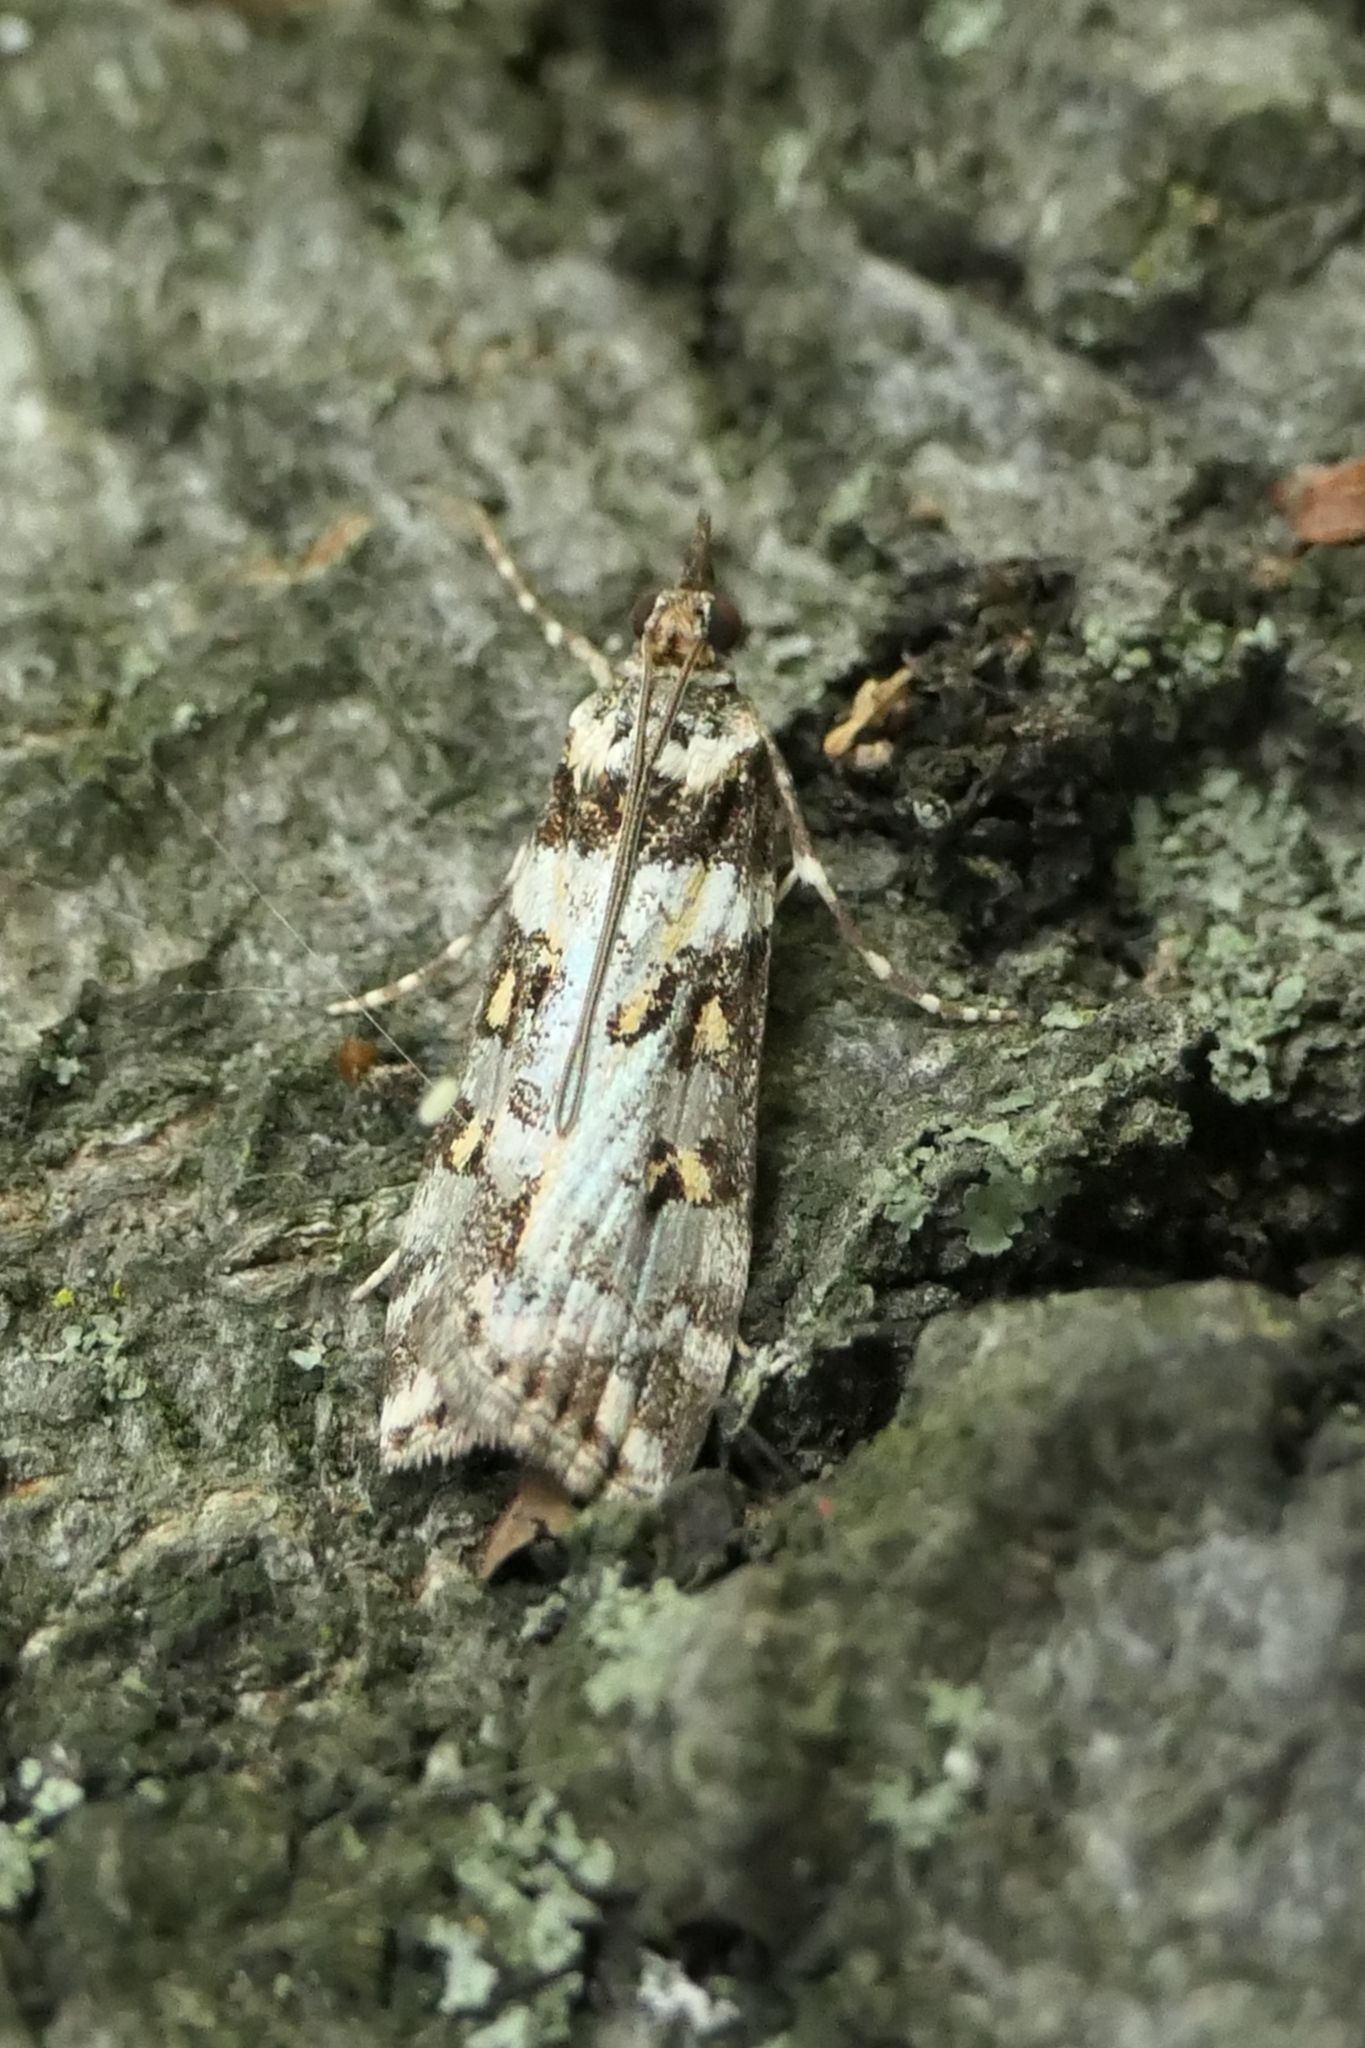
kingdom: Animalia
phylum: Arthropoda
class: Insecta
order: Lepidoptera
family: Crambidae
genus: Eudonia
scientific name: Eudonia diphtheralis
